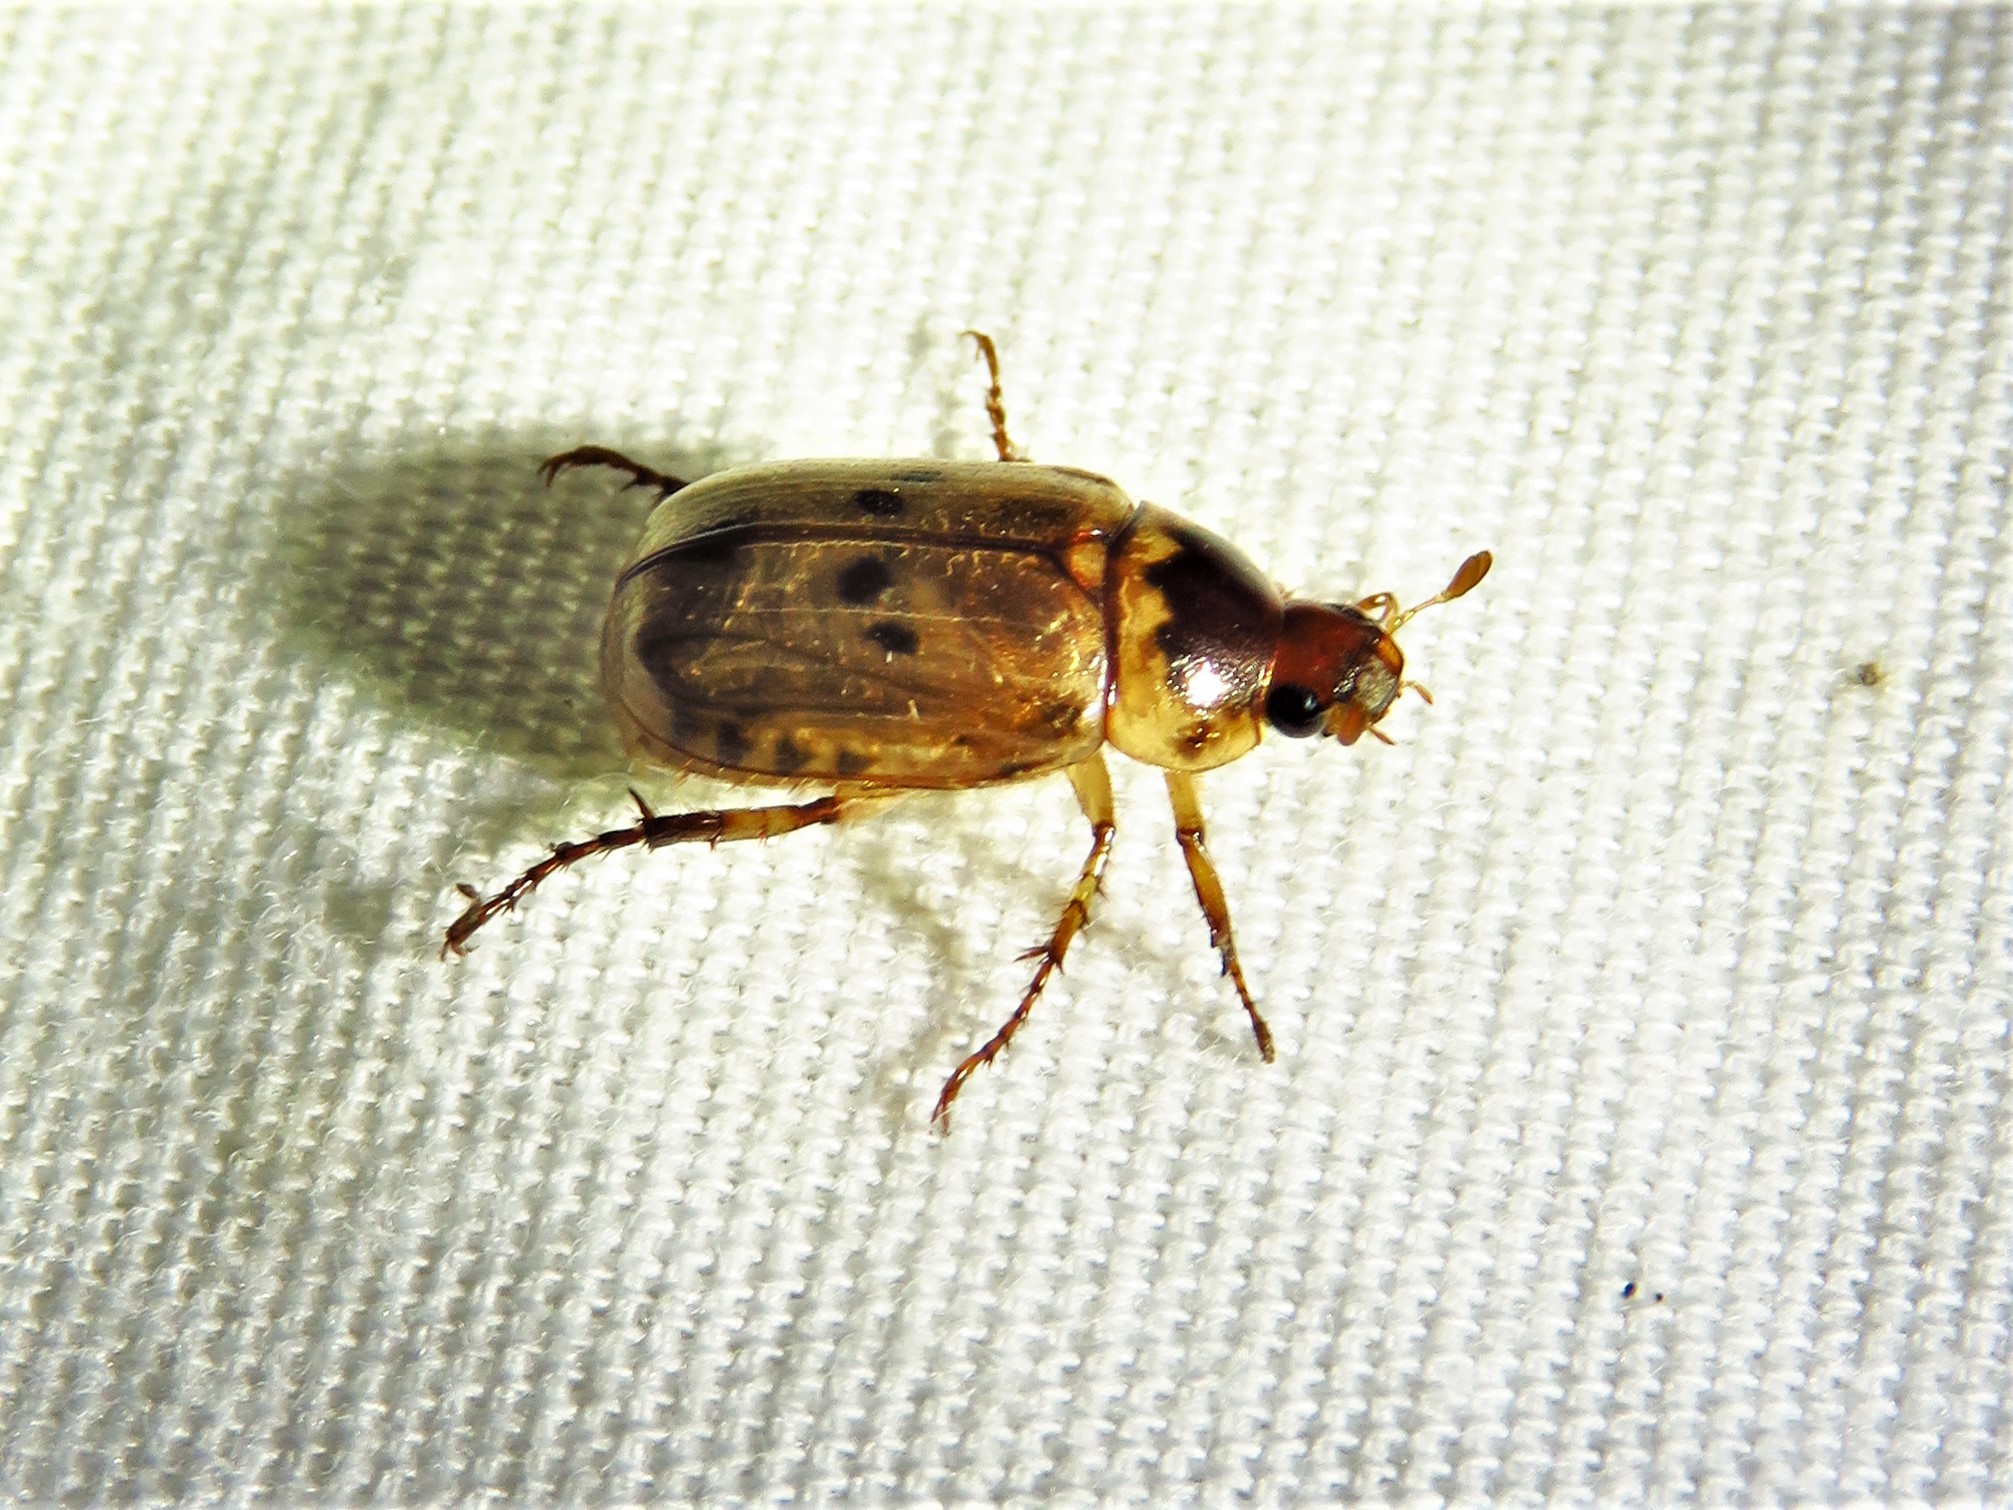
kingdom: Animalia
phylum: Arthropoda
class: Insecta
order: Coleoptera
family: Scarabaeidae
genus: Anomala
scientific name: Anomala innuba
